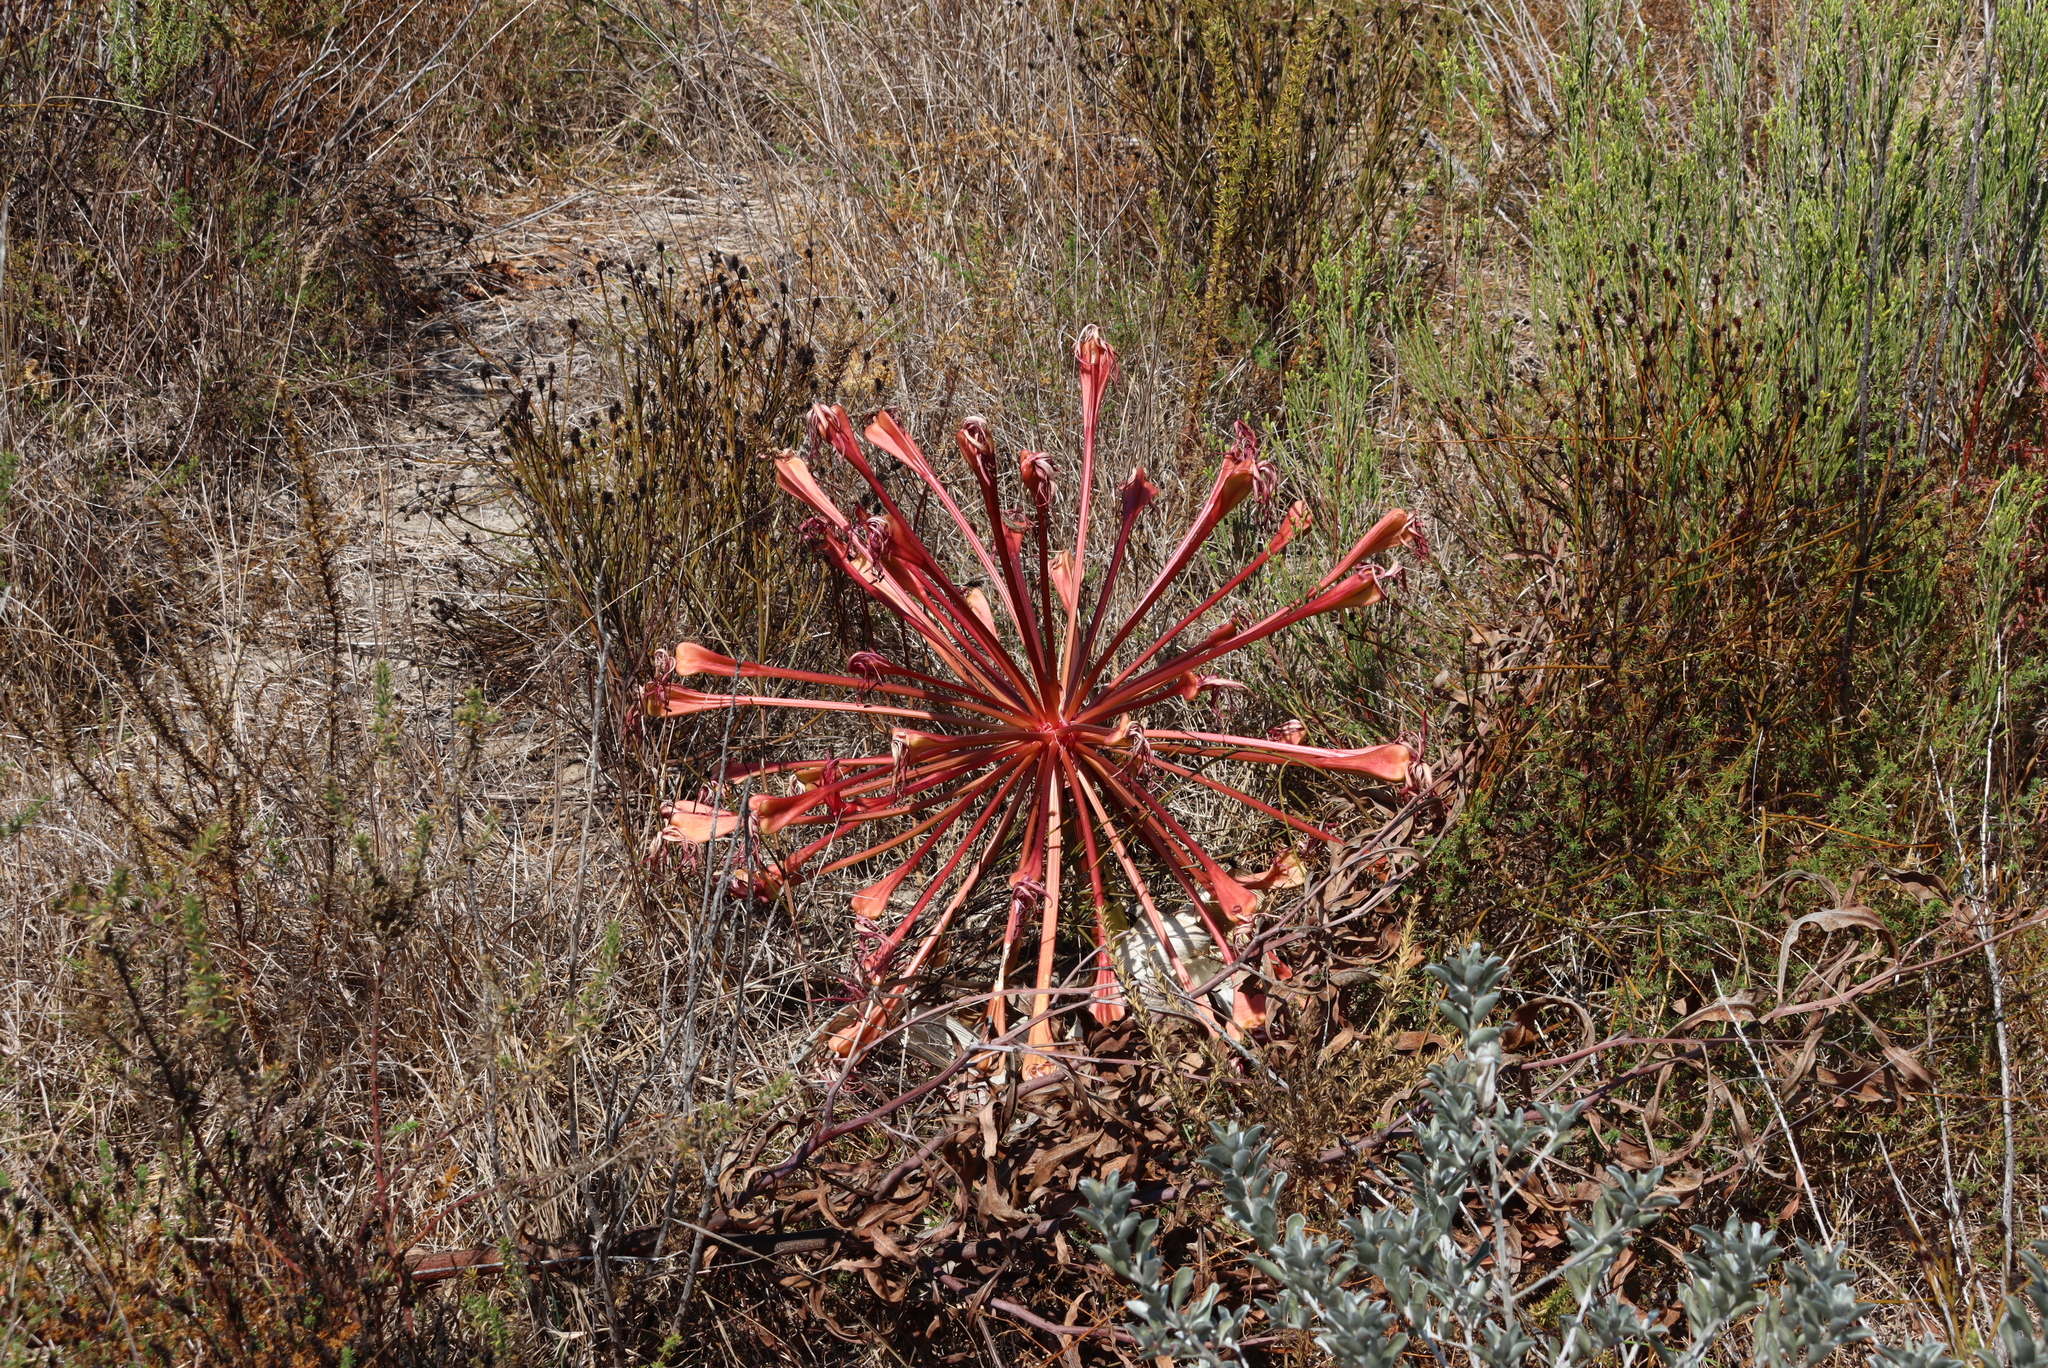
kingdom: Plantae
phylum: Tracheophyta
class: Liliopsida
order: Asparagales
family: Amaryllidaceae
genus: Brunsvigia
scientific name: Brunsvigia orientalis
